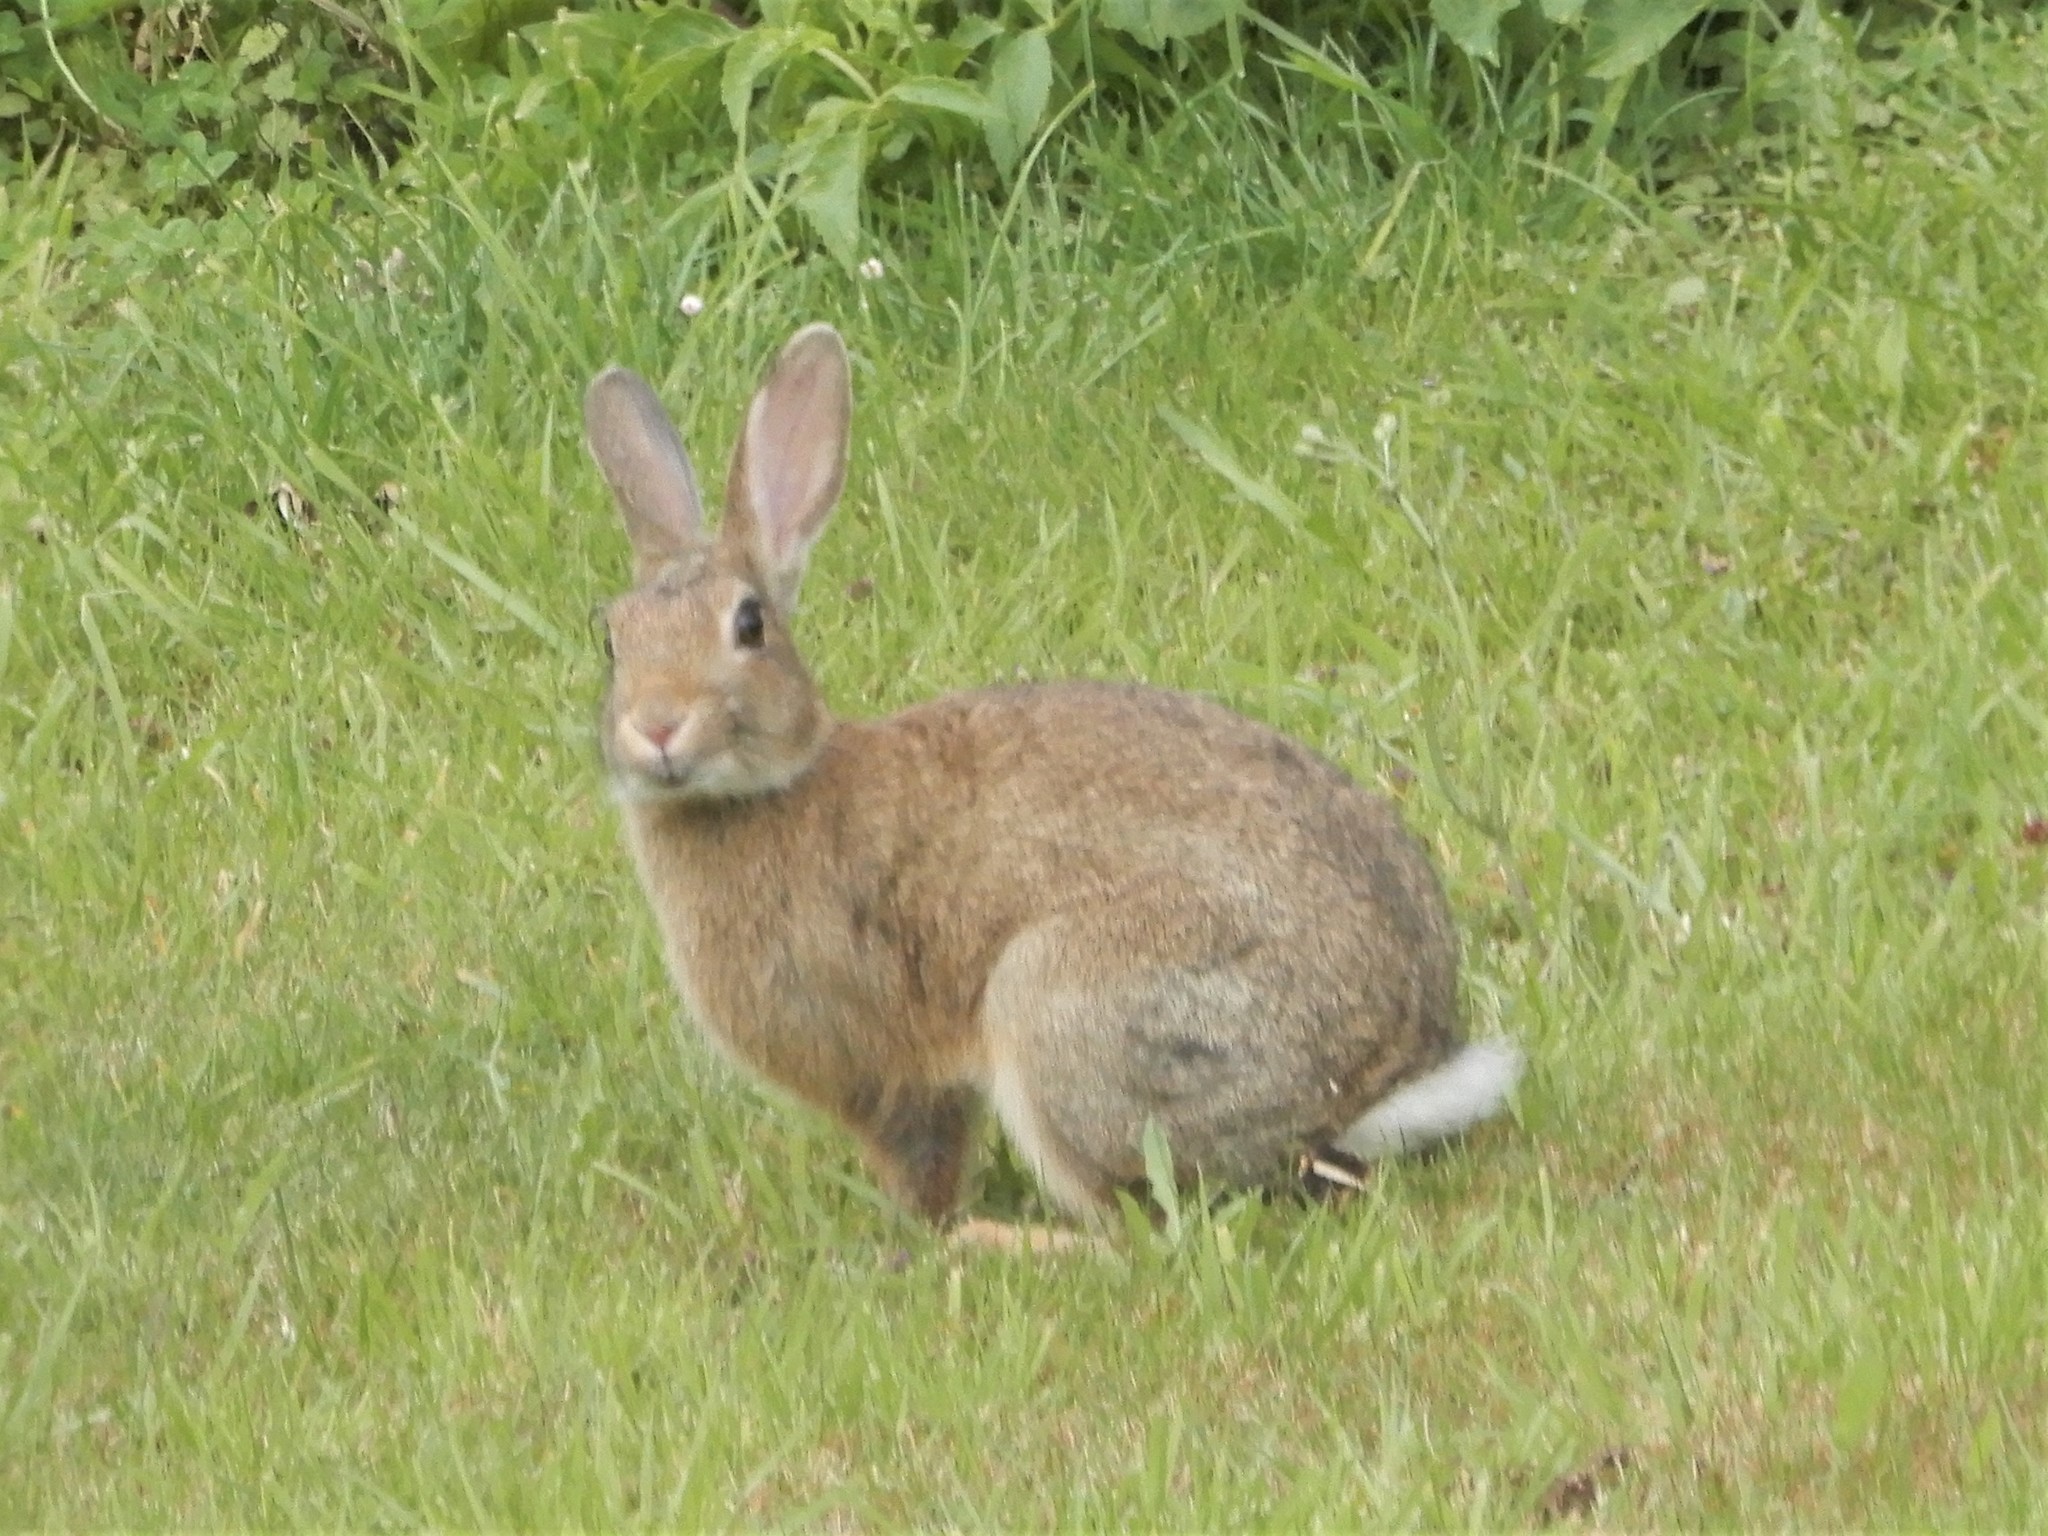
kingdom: Animalia
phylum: Chordata
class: Mammalia
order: Lagomorpha
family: Leporidae
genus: Oryctolagus
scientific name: Oryctolagus cuniculus
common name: European rabbit
